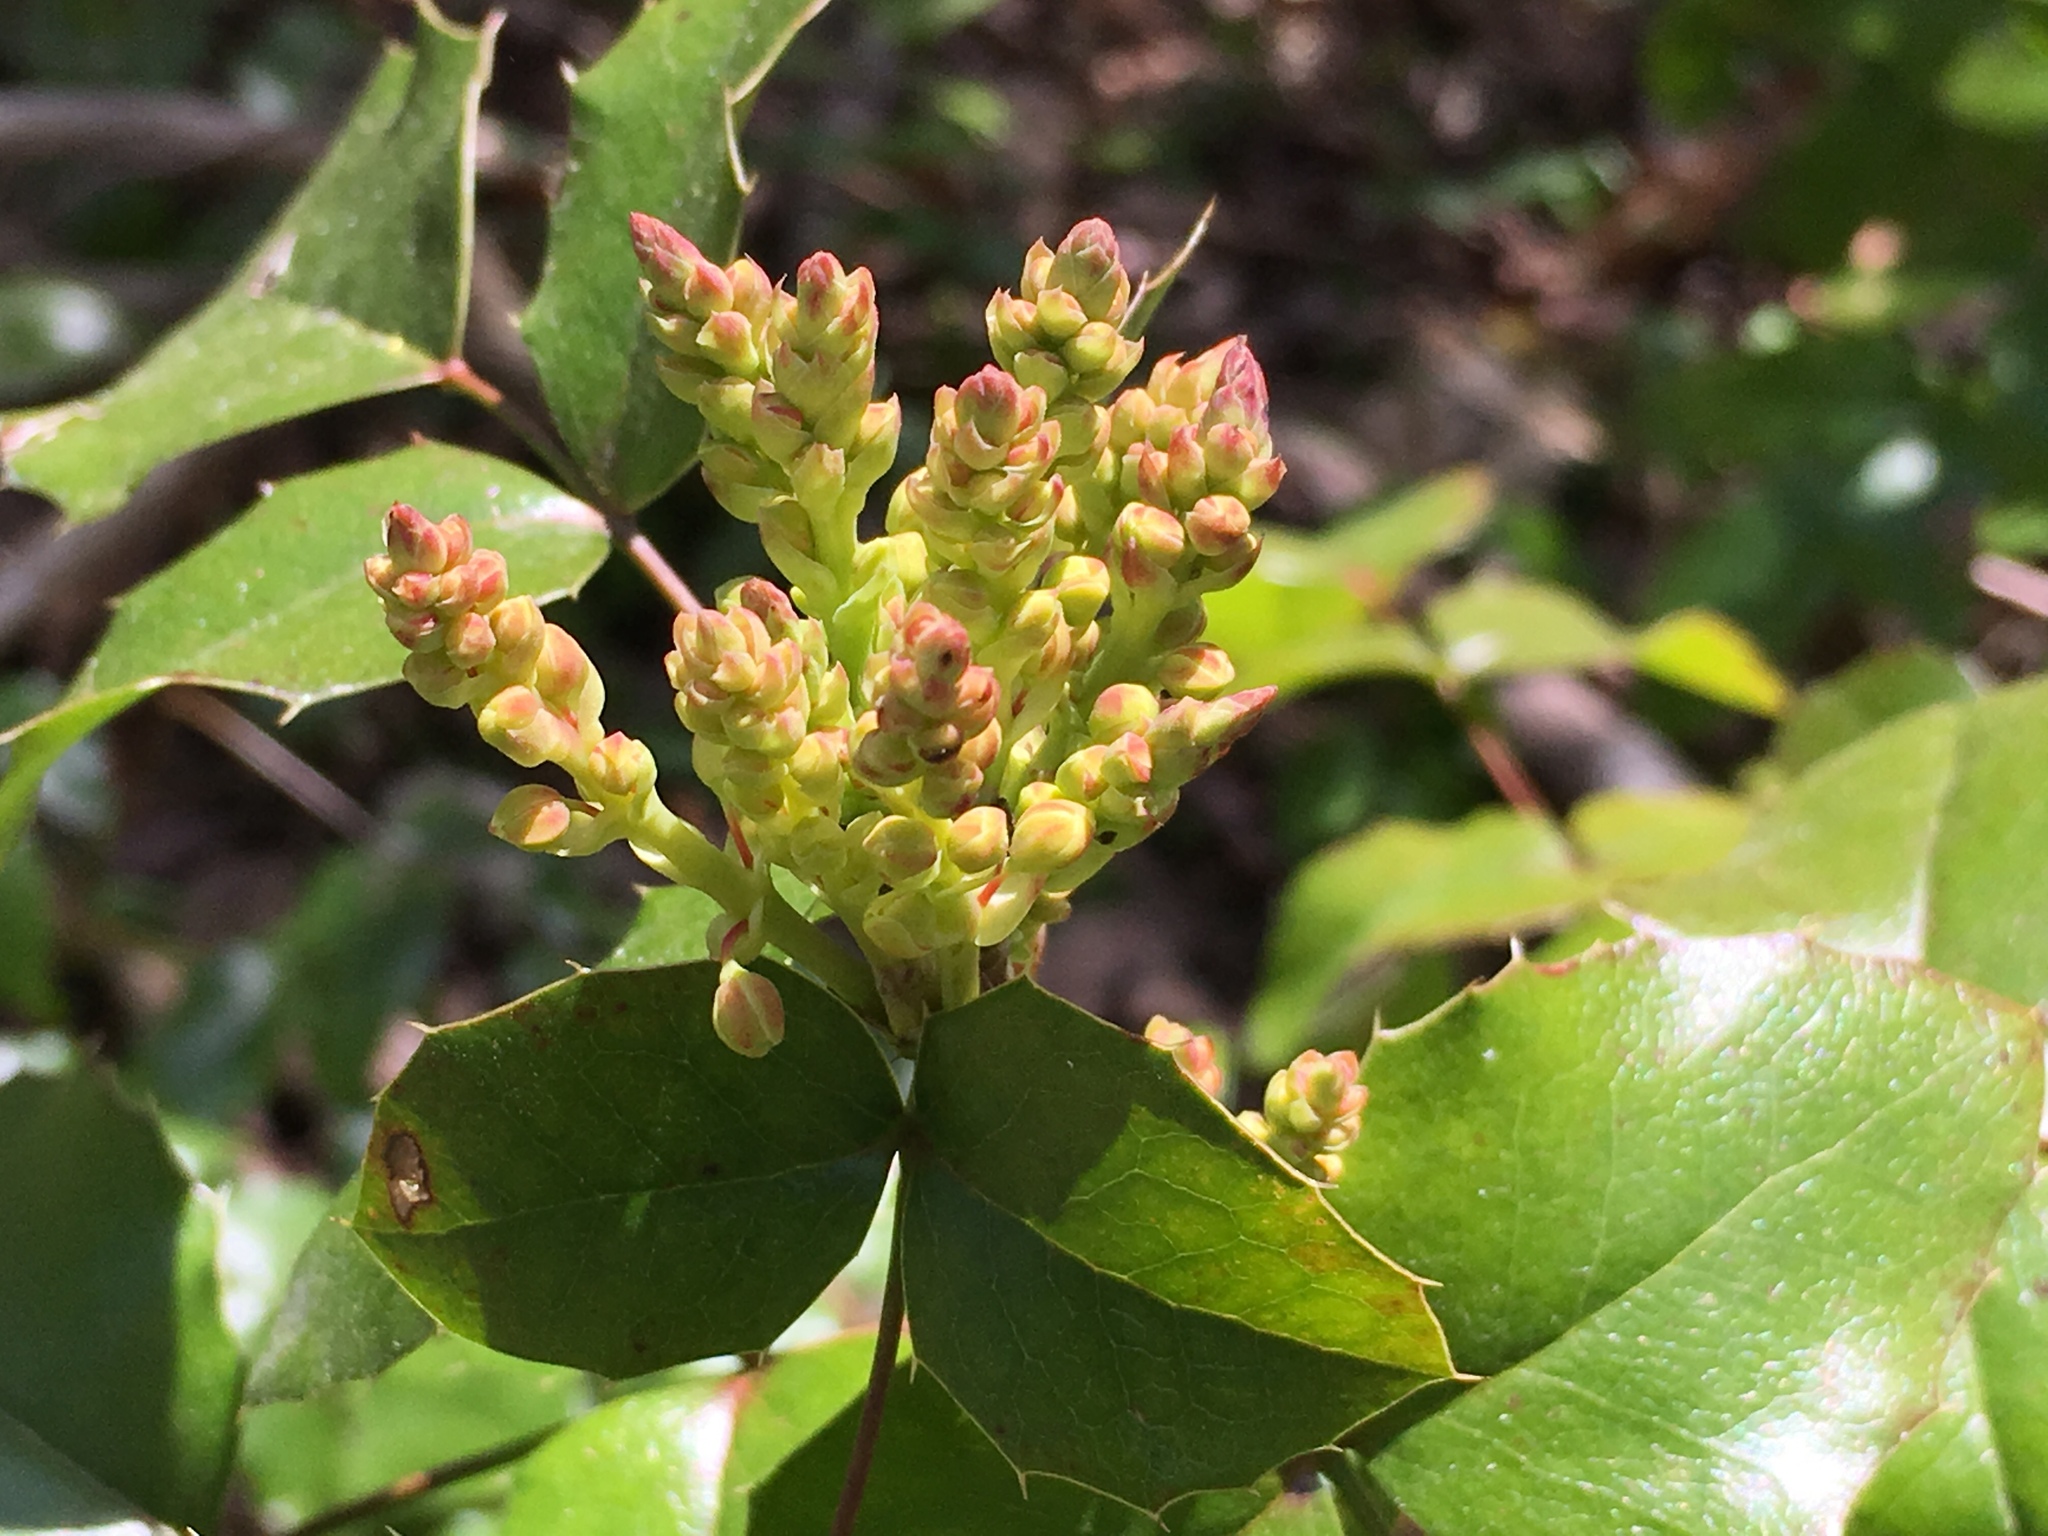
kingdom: Plantae
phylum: Tracheophyta
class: Magnoliopsida
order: Ranunculales
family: Berberidaceae
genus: Mahonia
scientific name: Mahonia aquifolium
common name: Oregon-grape
